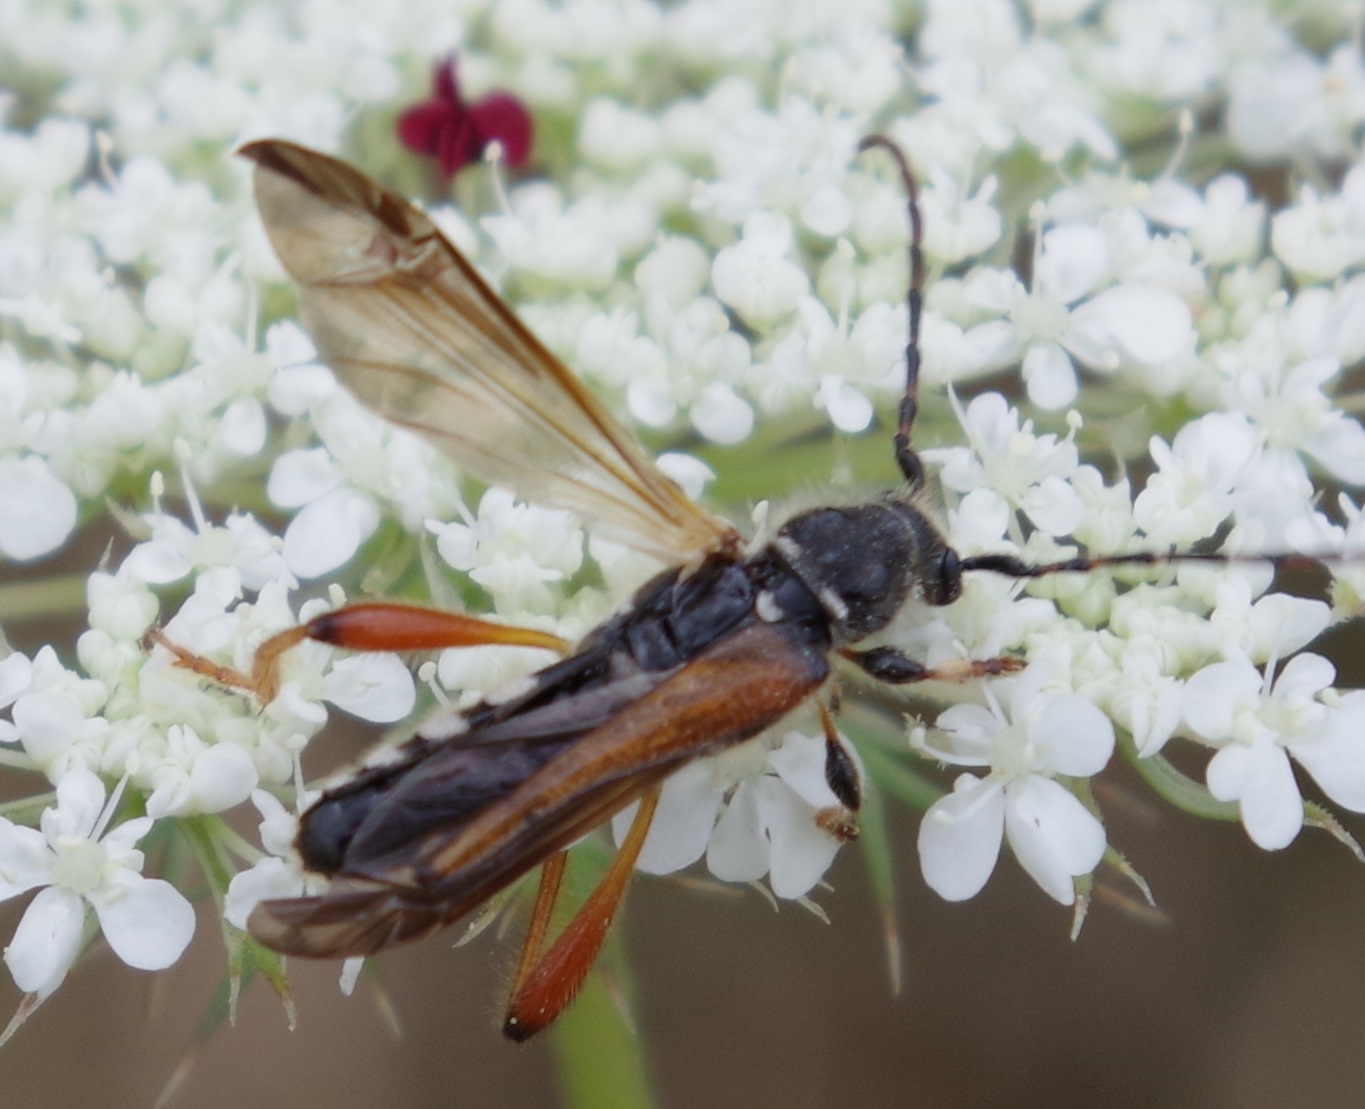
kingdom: Animalia
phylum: Arthropoda
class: Insecta
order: Coleoptera
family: Cerambycidae
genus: Stenopterus
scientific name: Stenopterus rufus
